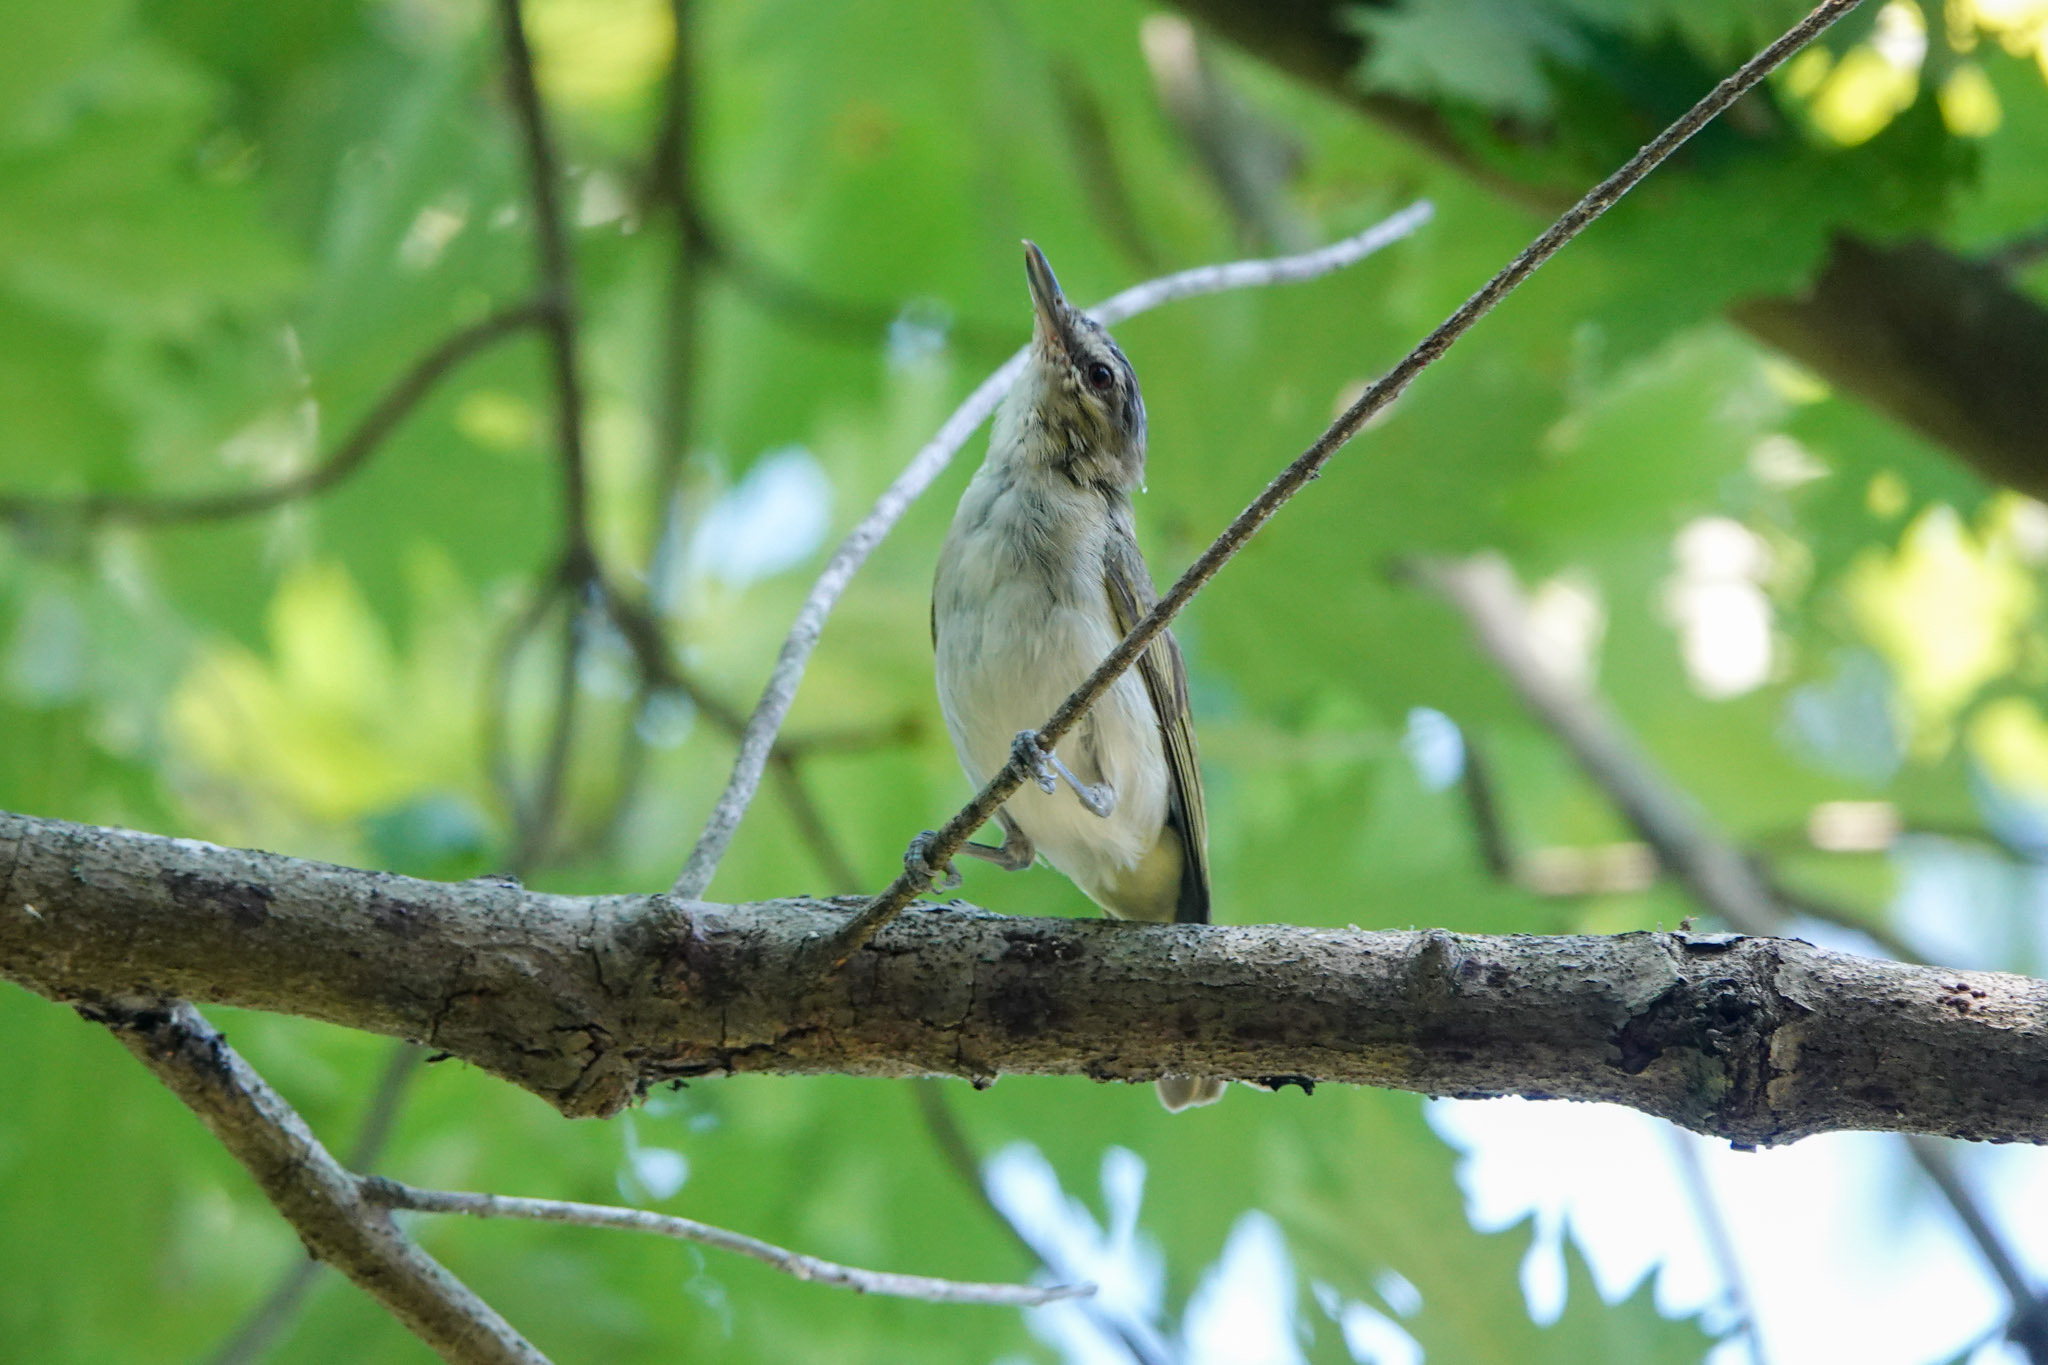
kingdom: Animalia
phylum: Chordata
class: Aves
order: Passeriformes
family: Vireonidae
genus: Vireo
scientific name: Vireo olivaceus
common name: Red-eyed vireo
